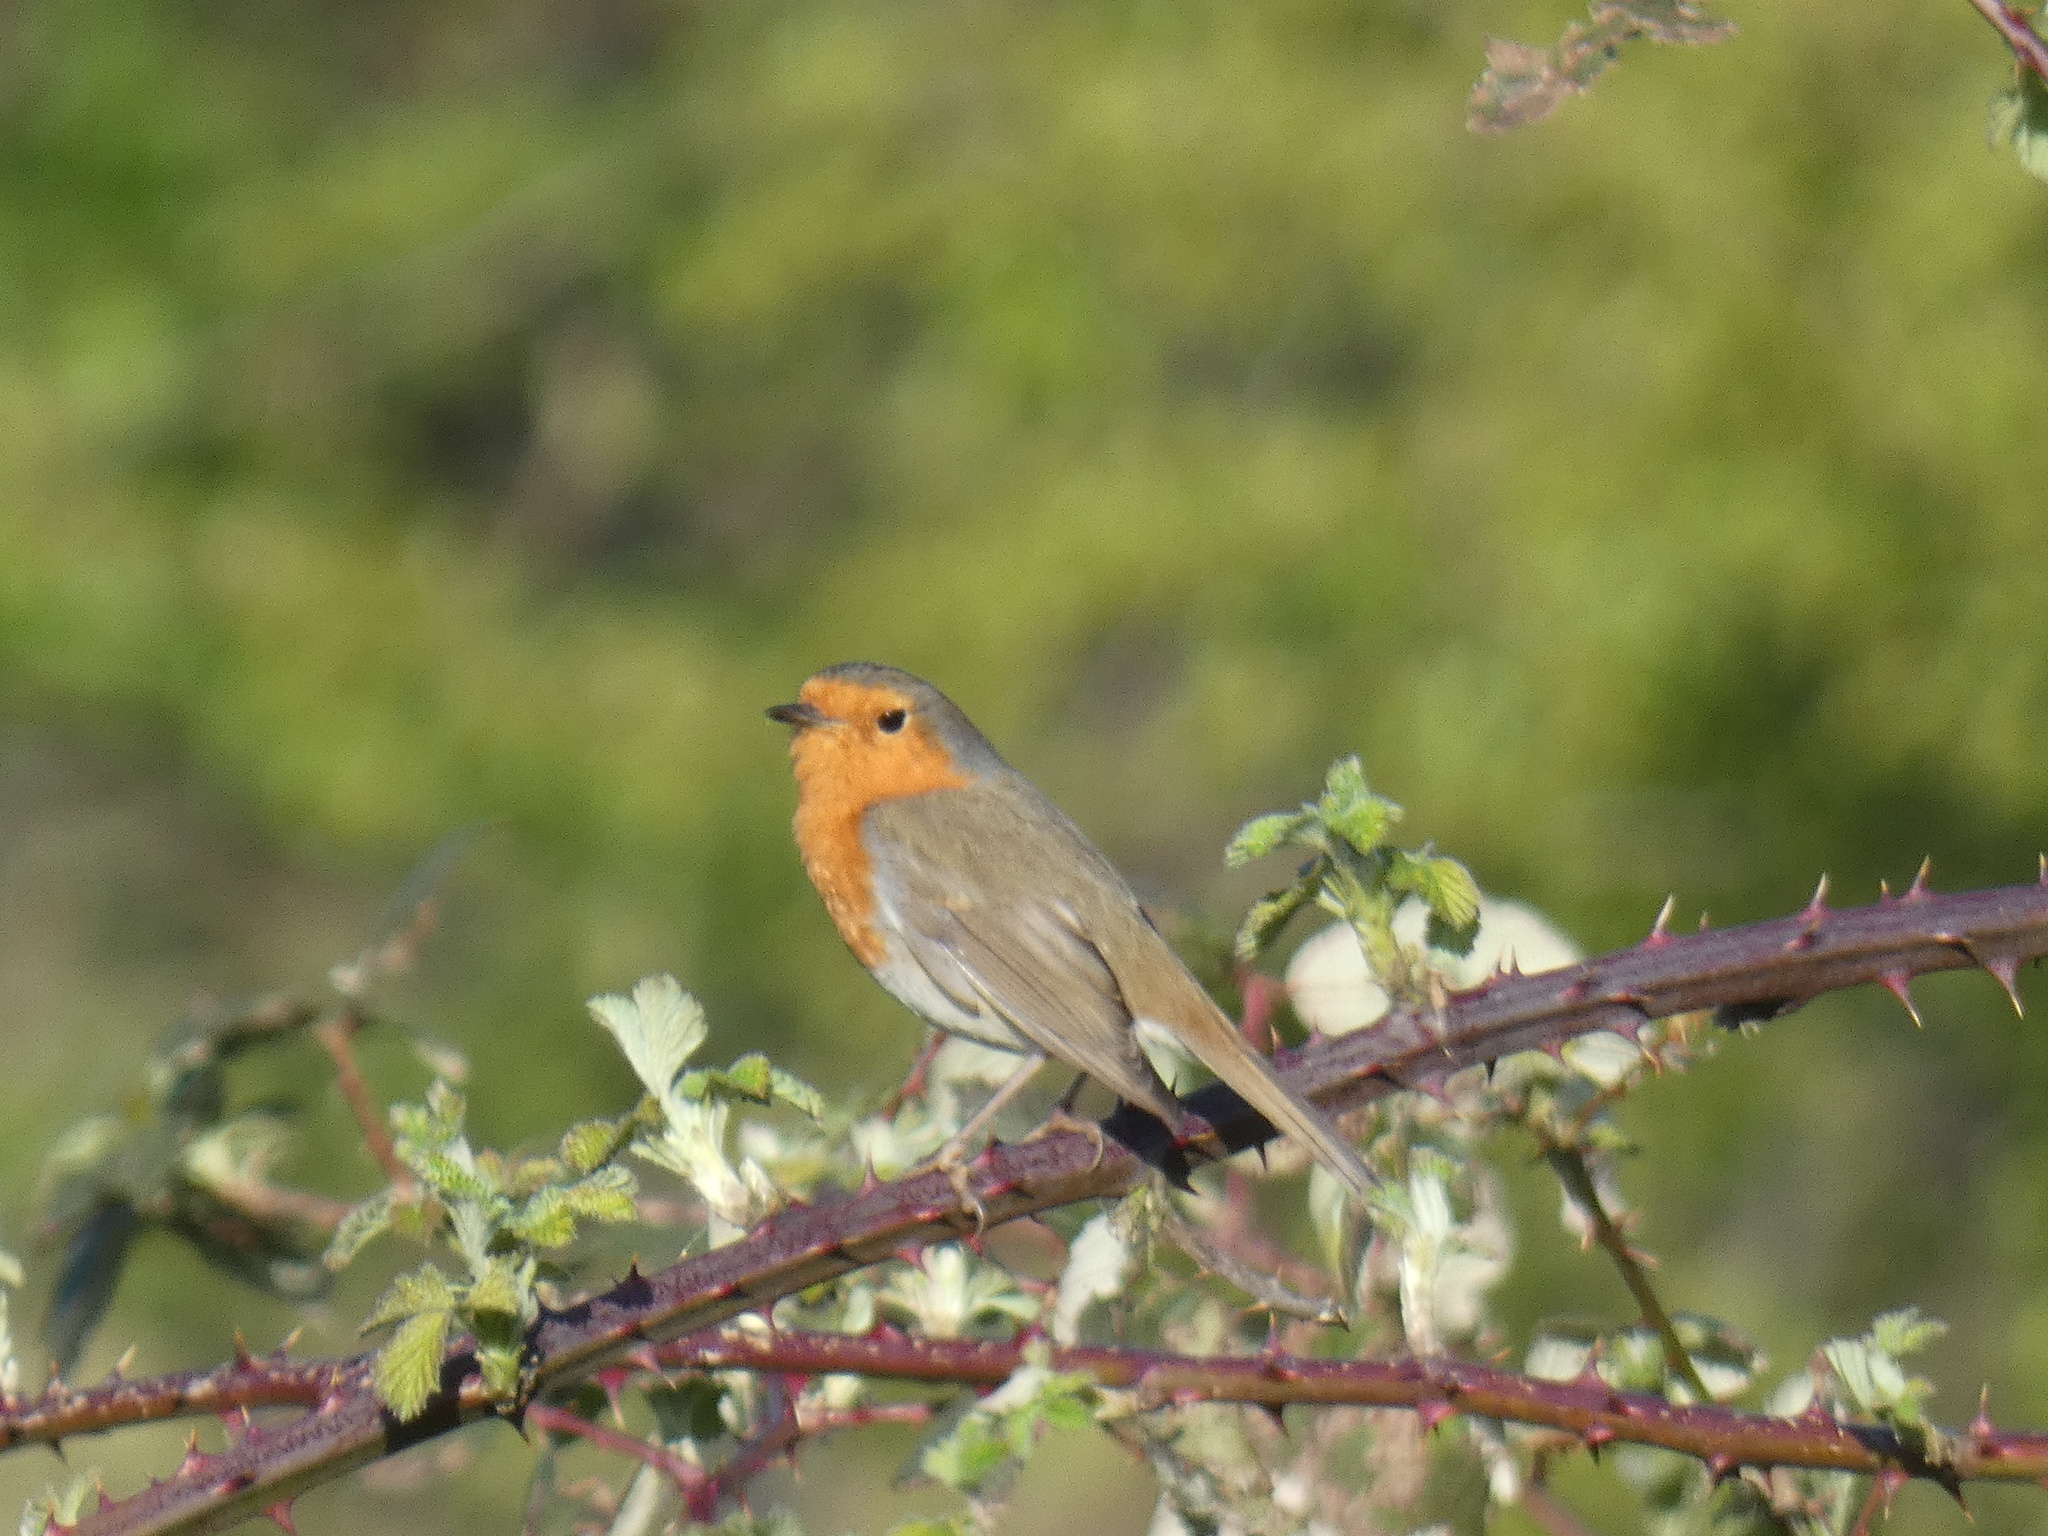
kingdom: Animalia
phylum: Chordata
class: Aves
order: Passeriformes
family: Muscicapidae
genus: Erithacus
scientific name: Erithacus rubecula
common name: European robin
